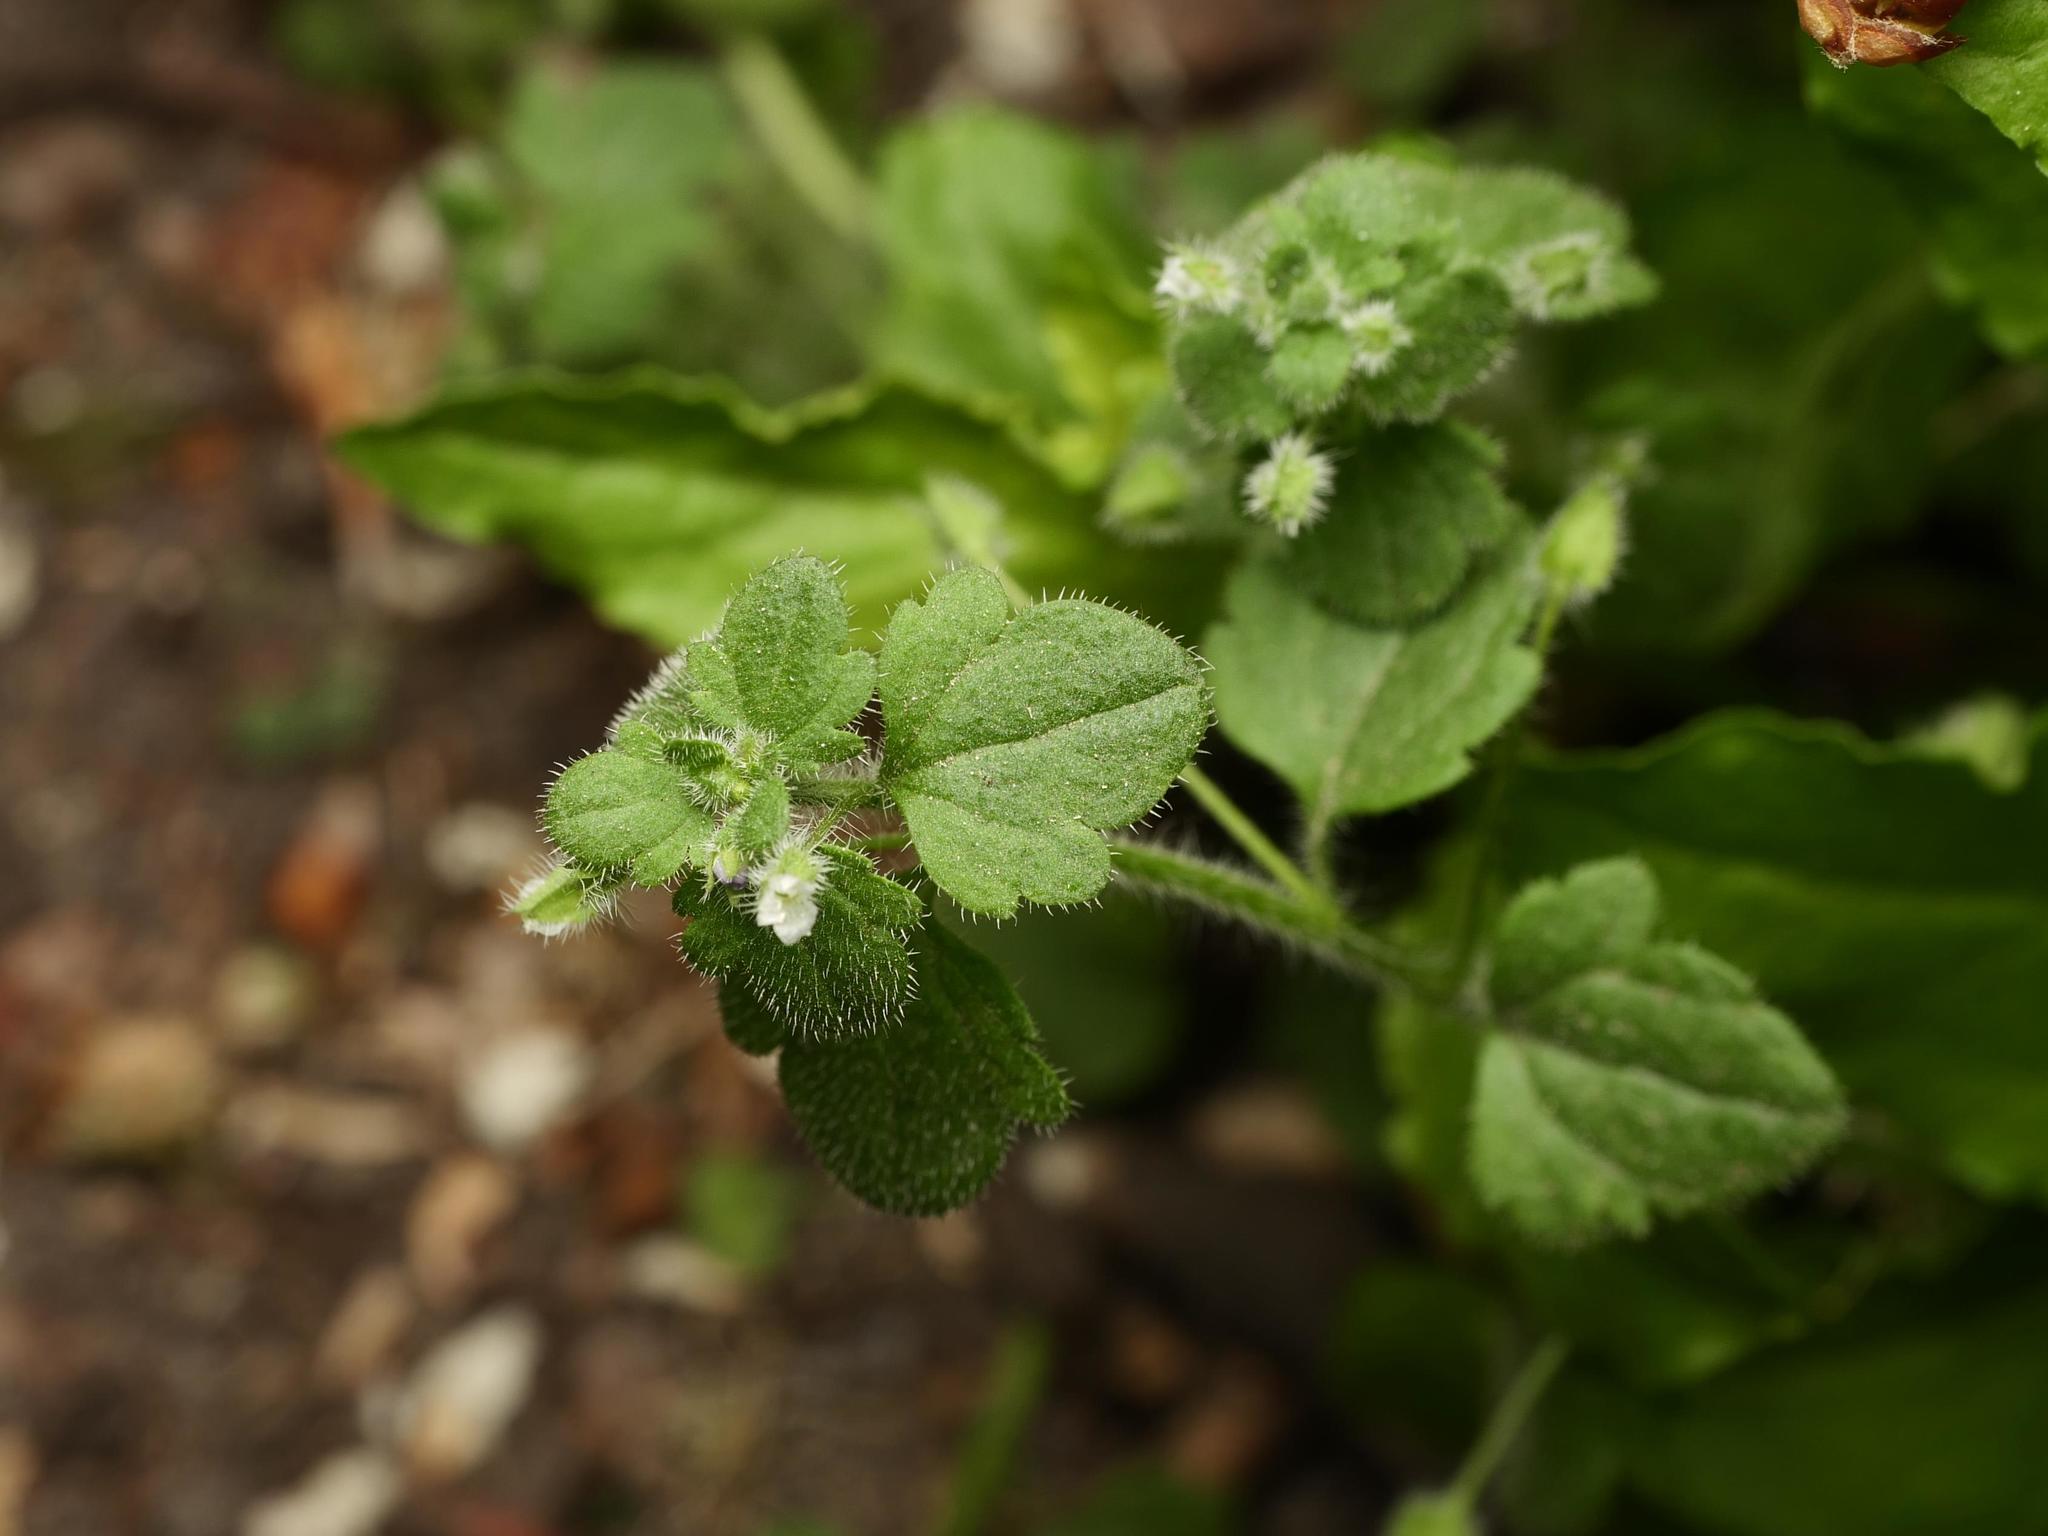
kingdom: Plantae
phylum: Tracheophyta
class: Magnoliopsida
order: Lamiales
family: Plantaginaceae
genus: Veronica
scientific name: Veronica sublobata
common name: False ivy-leaved speedwell
